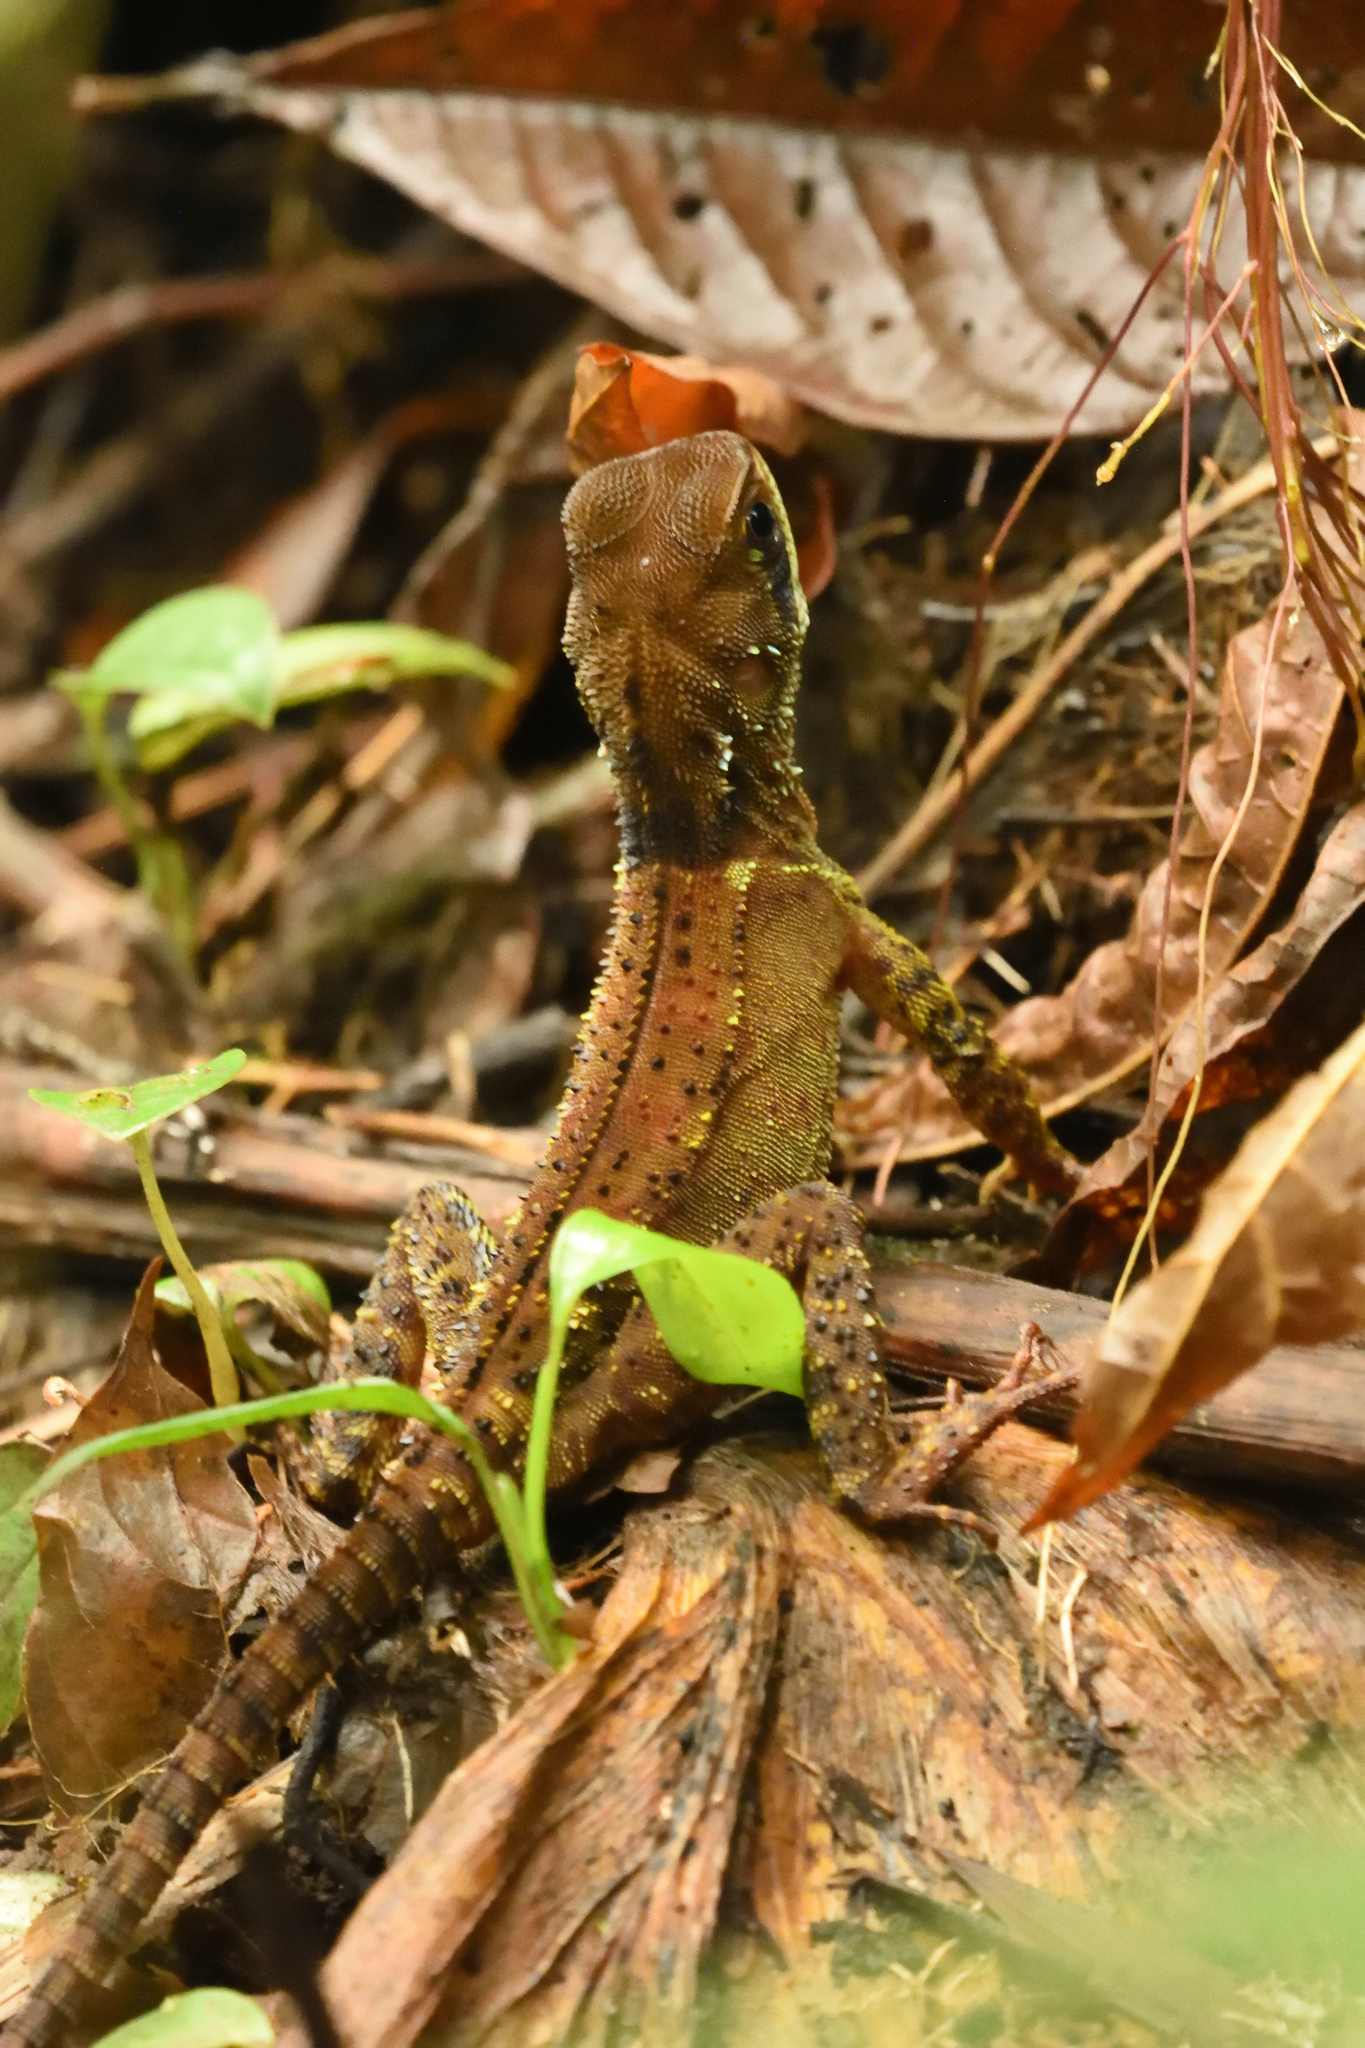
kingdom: Animalia
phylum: Chordata
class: Squamata
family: Hoplocercidae
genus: Enyalioides
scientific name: Enyalioides heterolepis
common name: Bocourt's dwarf iguana
